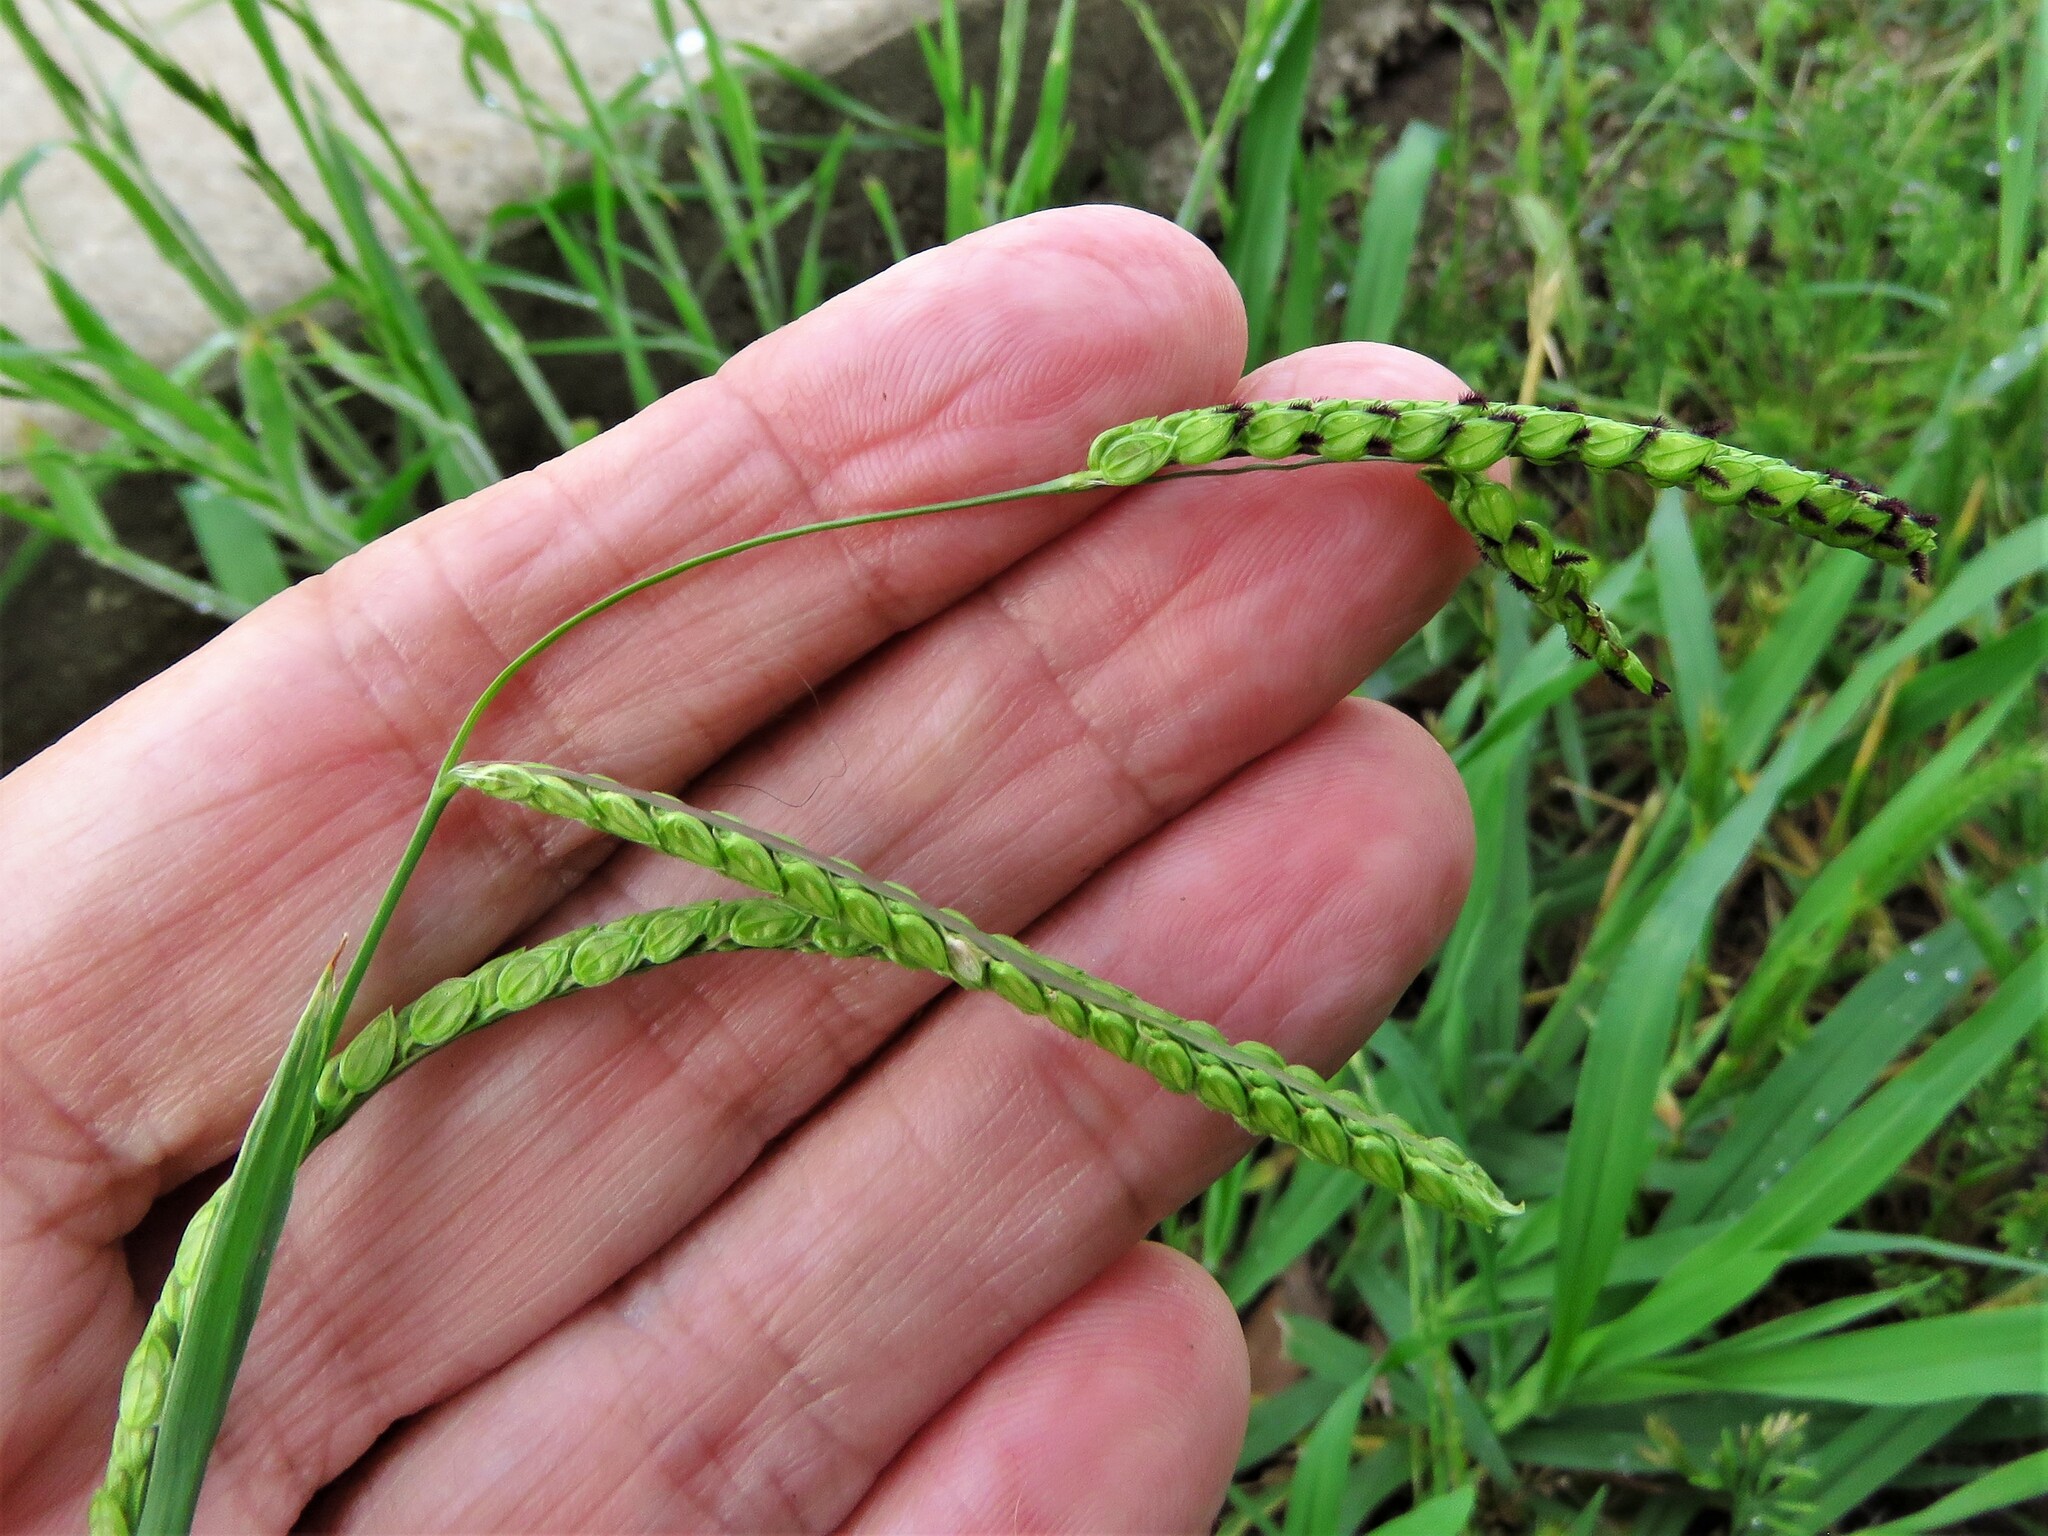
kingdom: Plantae
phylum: Tracheophyta
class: Liliopsida
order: Poales
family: Poaceae
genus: Paspalum
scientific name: Paspalum dilatatum
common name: Dallisgrass
